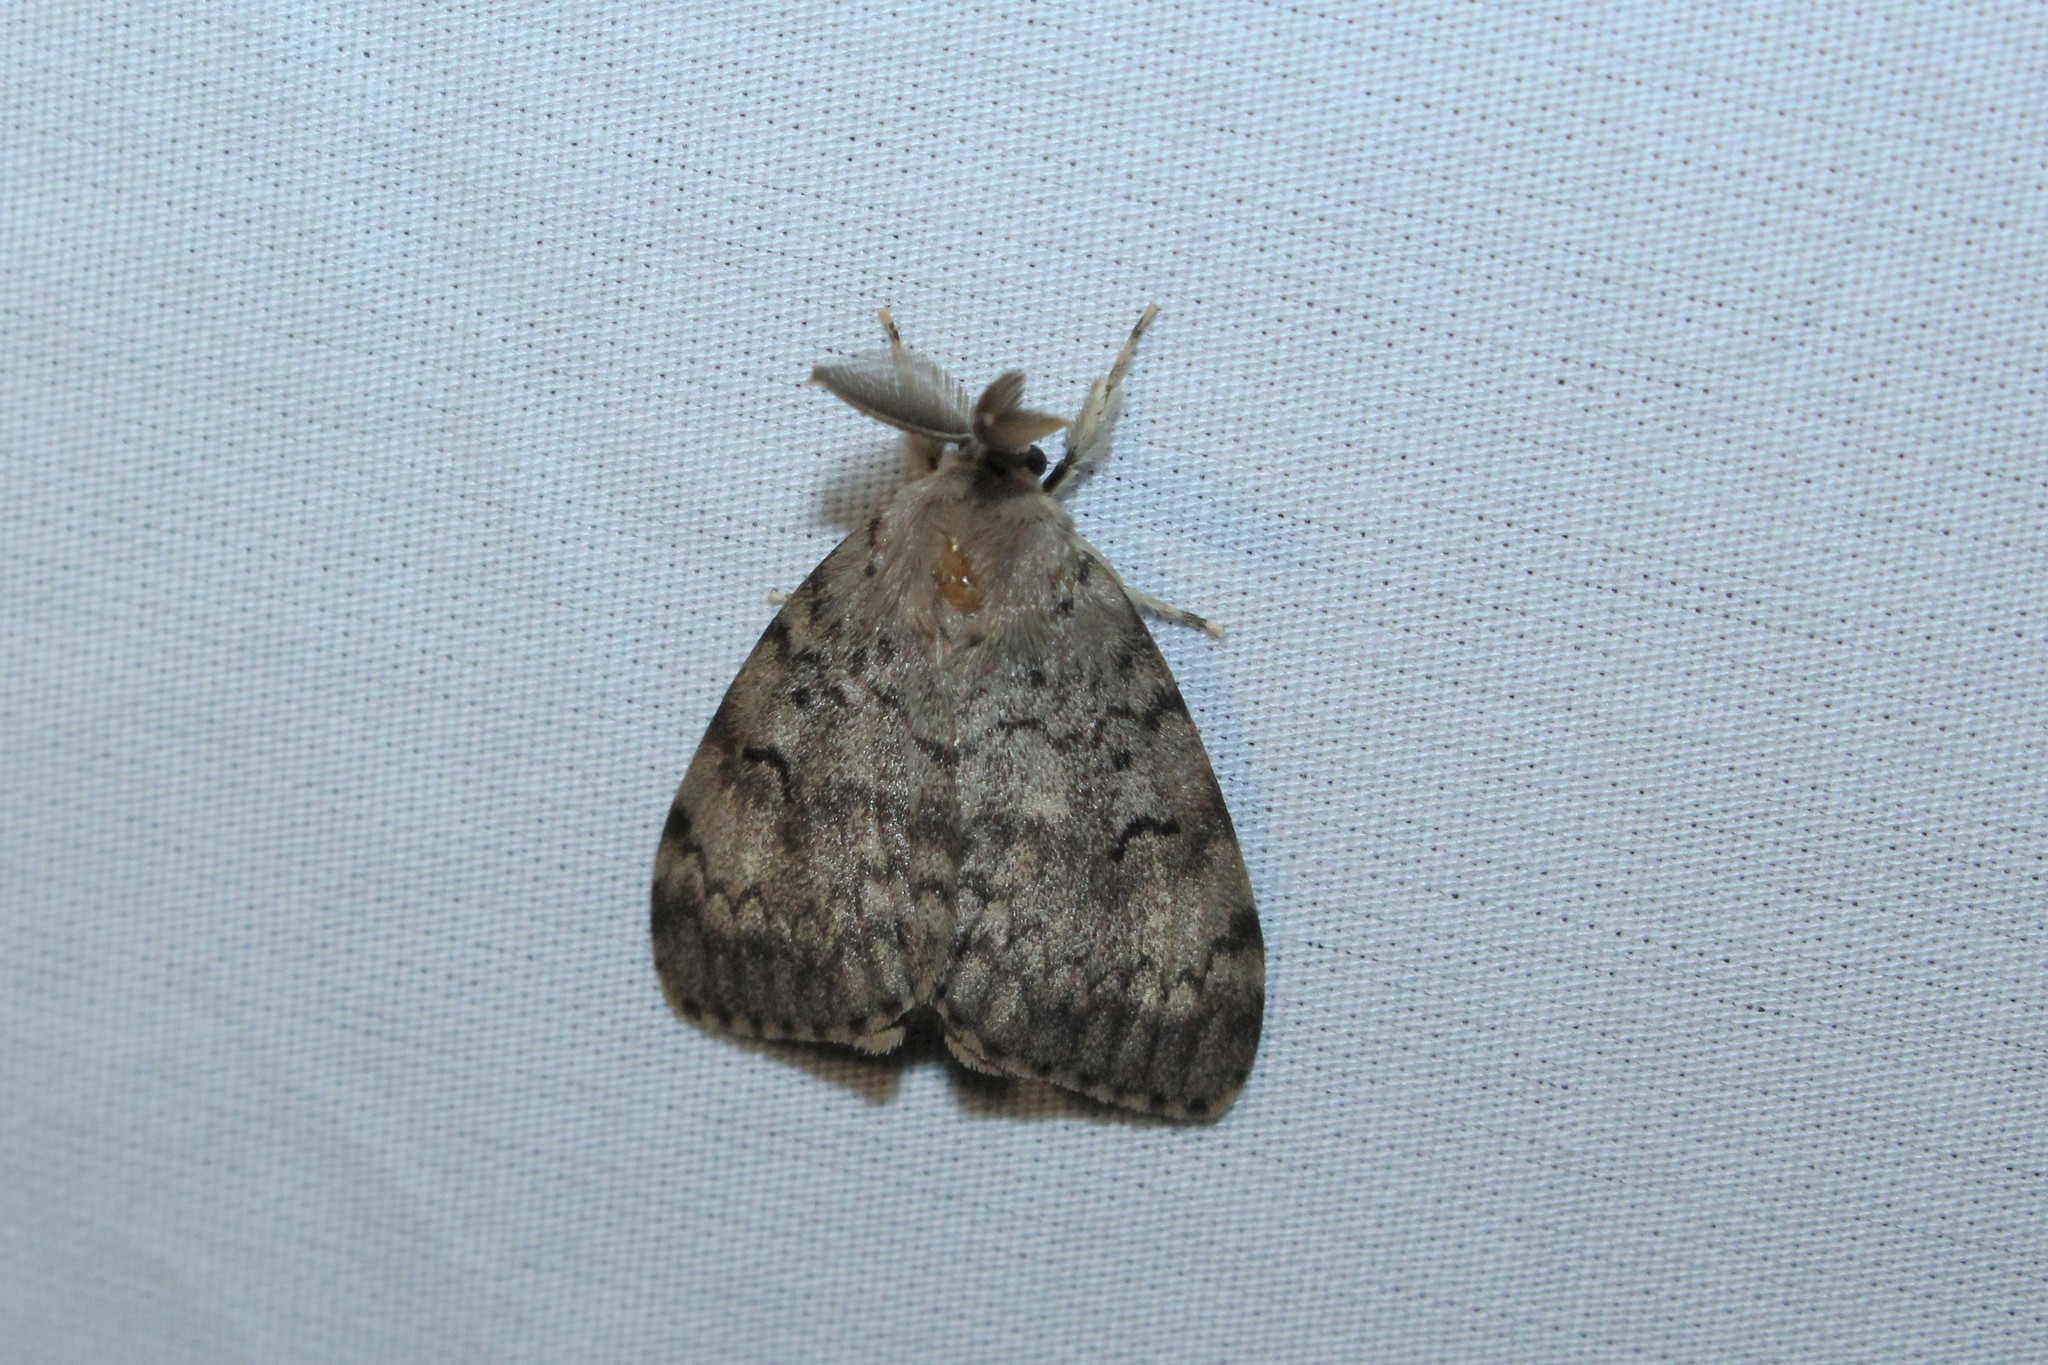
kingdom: Animalia
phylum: Arthropoda
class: Insecta
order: Lepidoptera
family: Erebidae
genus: Lymantria
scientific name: Lymantria dispar
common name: Gypsy moth
